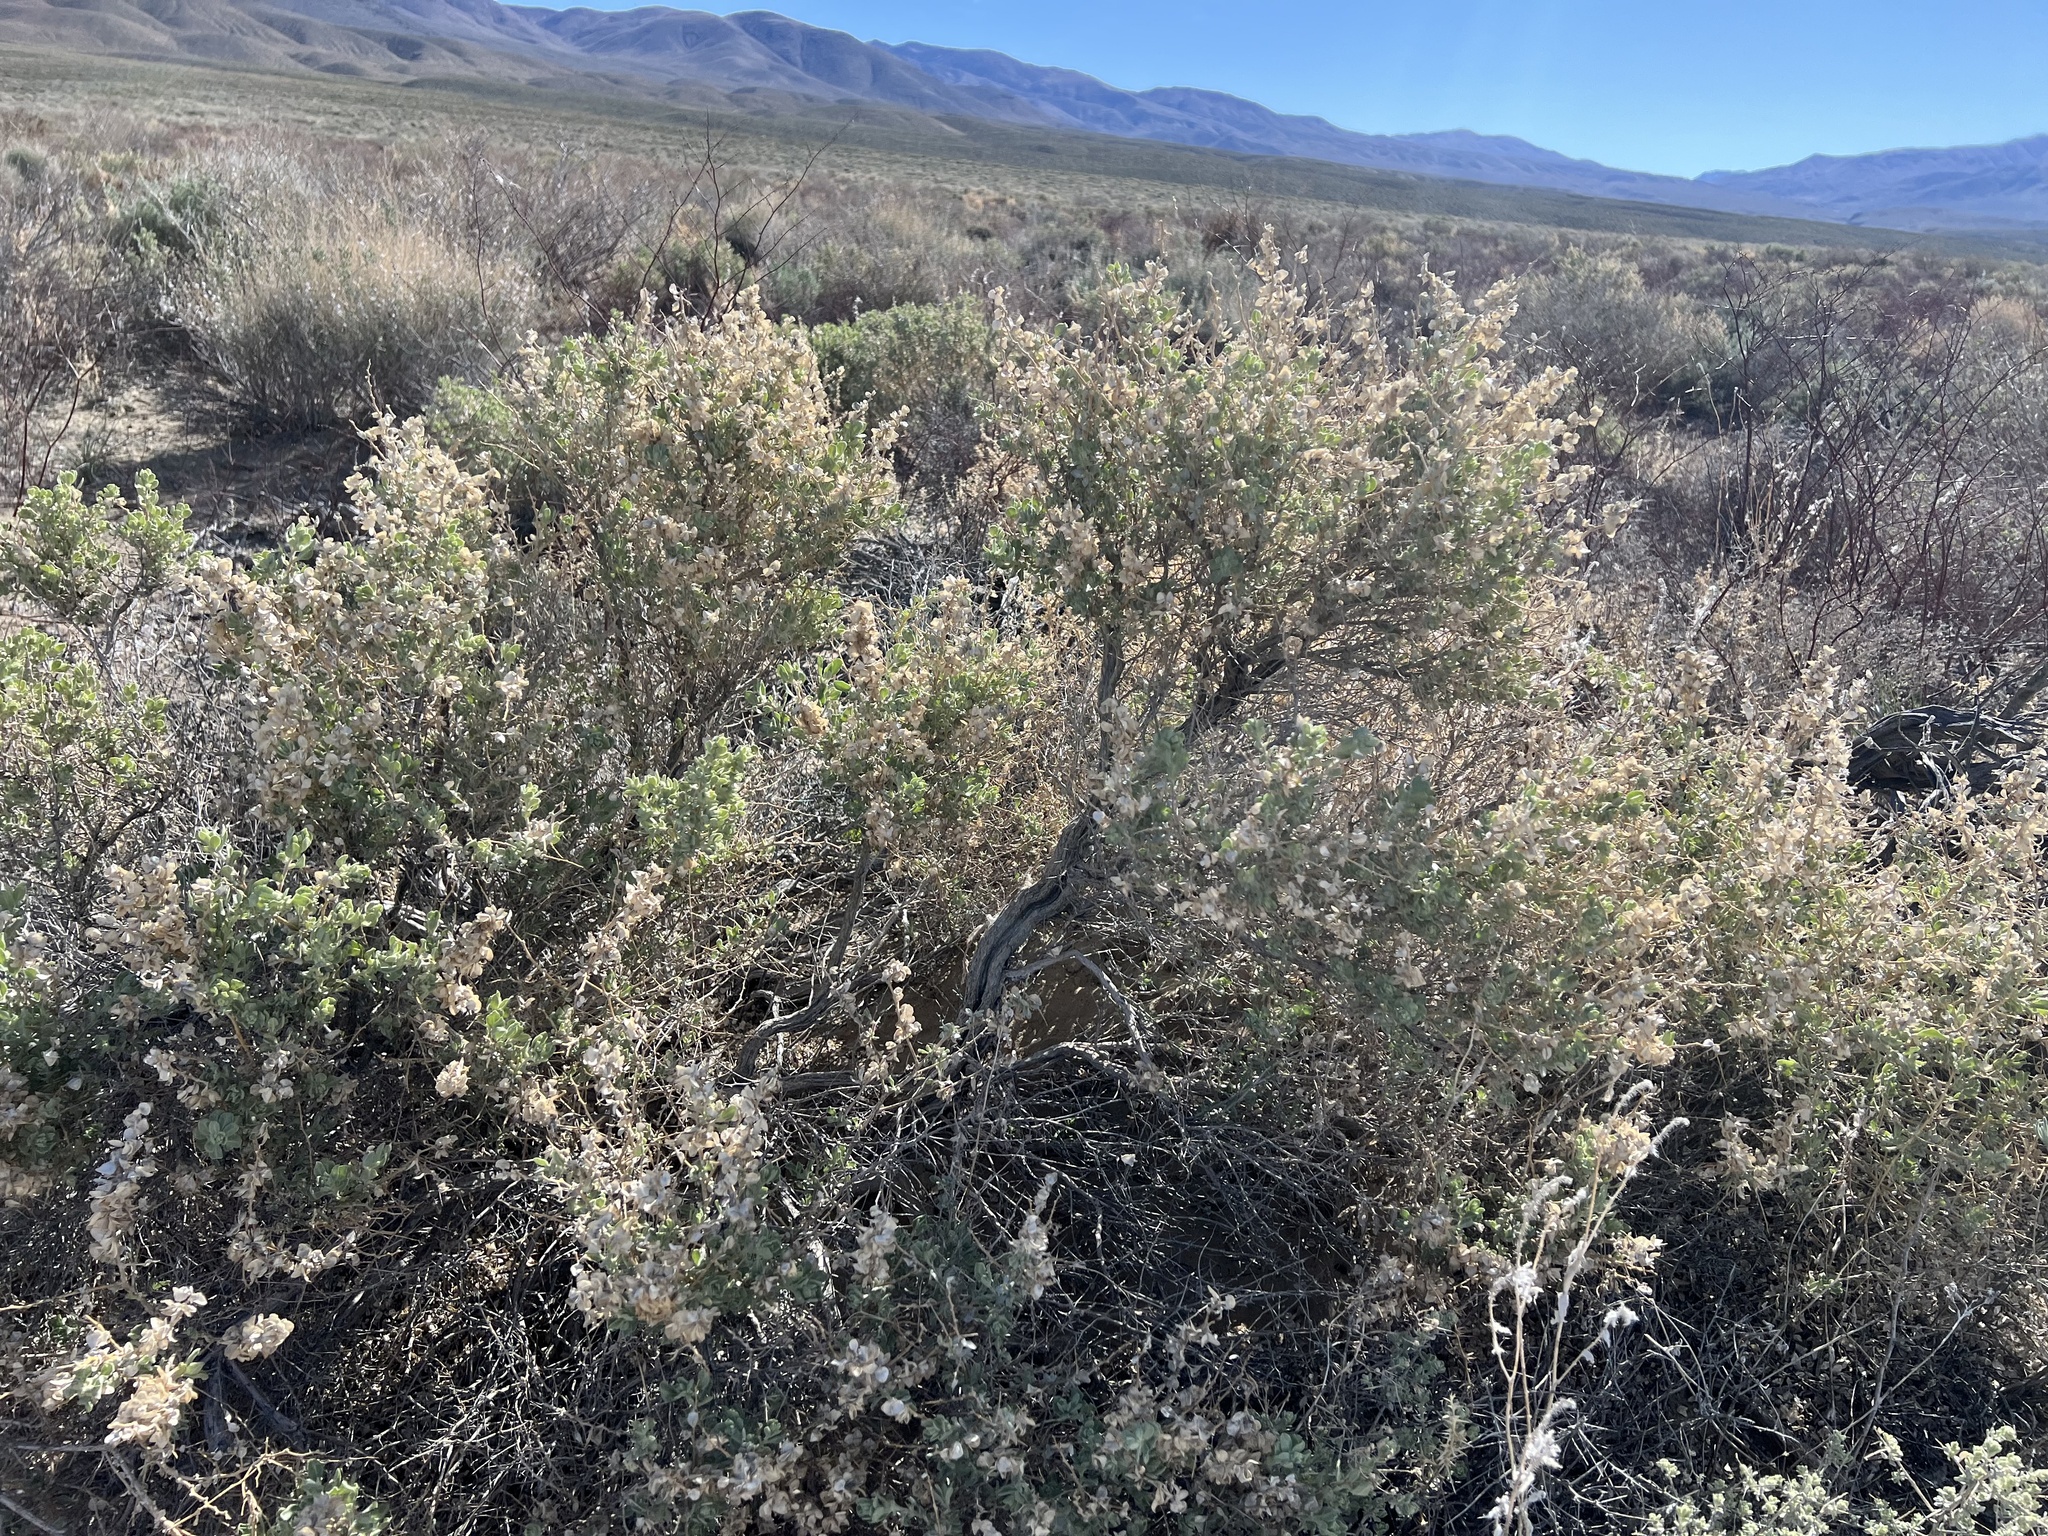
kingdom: Plantae
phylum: Tracheophyta
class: Magnoliopsida
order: Caryophyllales
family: Amaranthaceae
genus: Atriplex
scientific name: Atriplex confertifolia
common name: Shadscale
